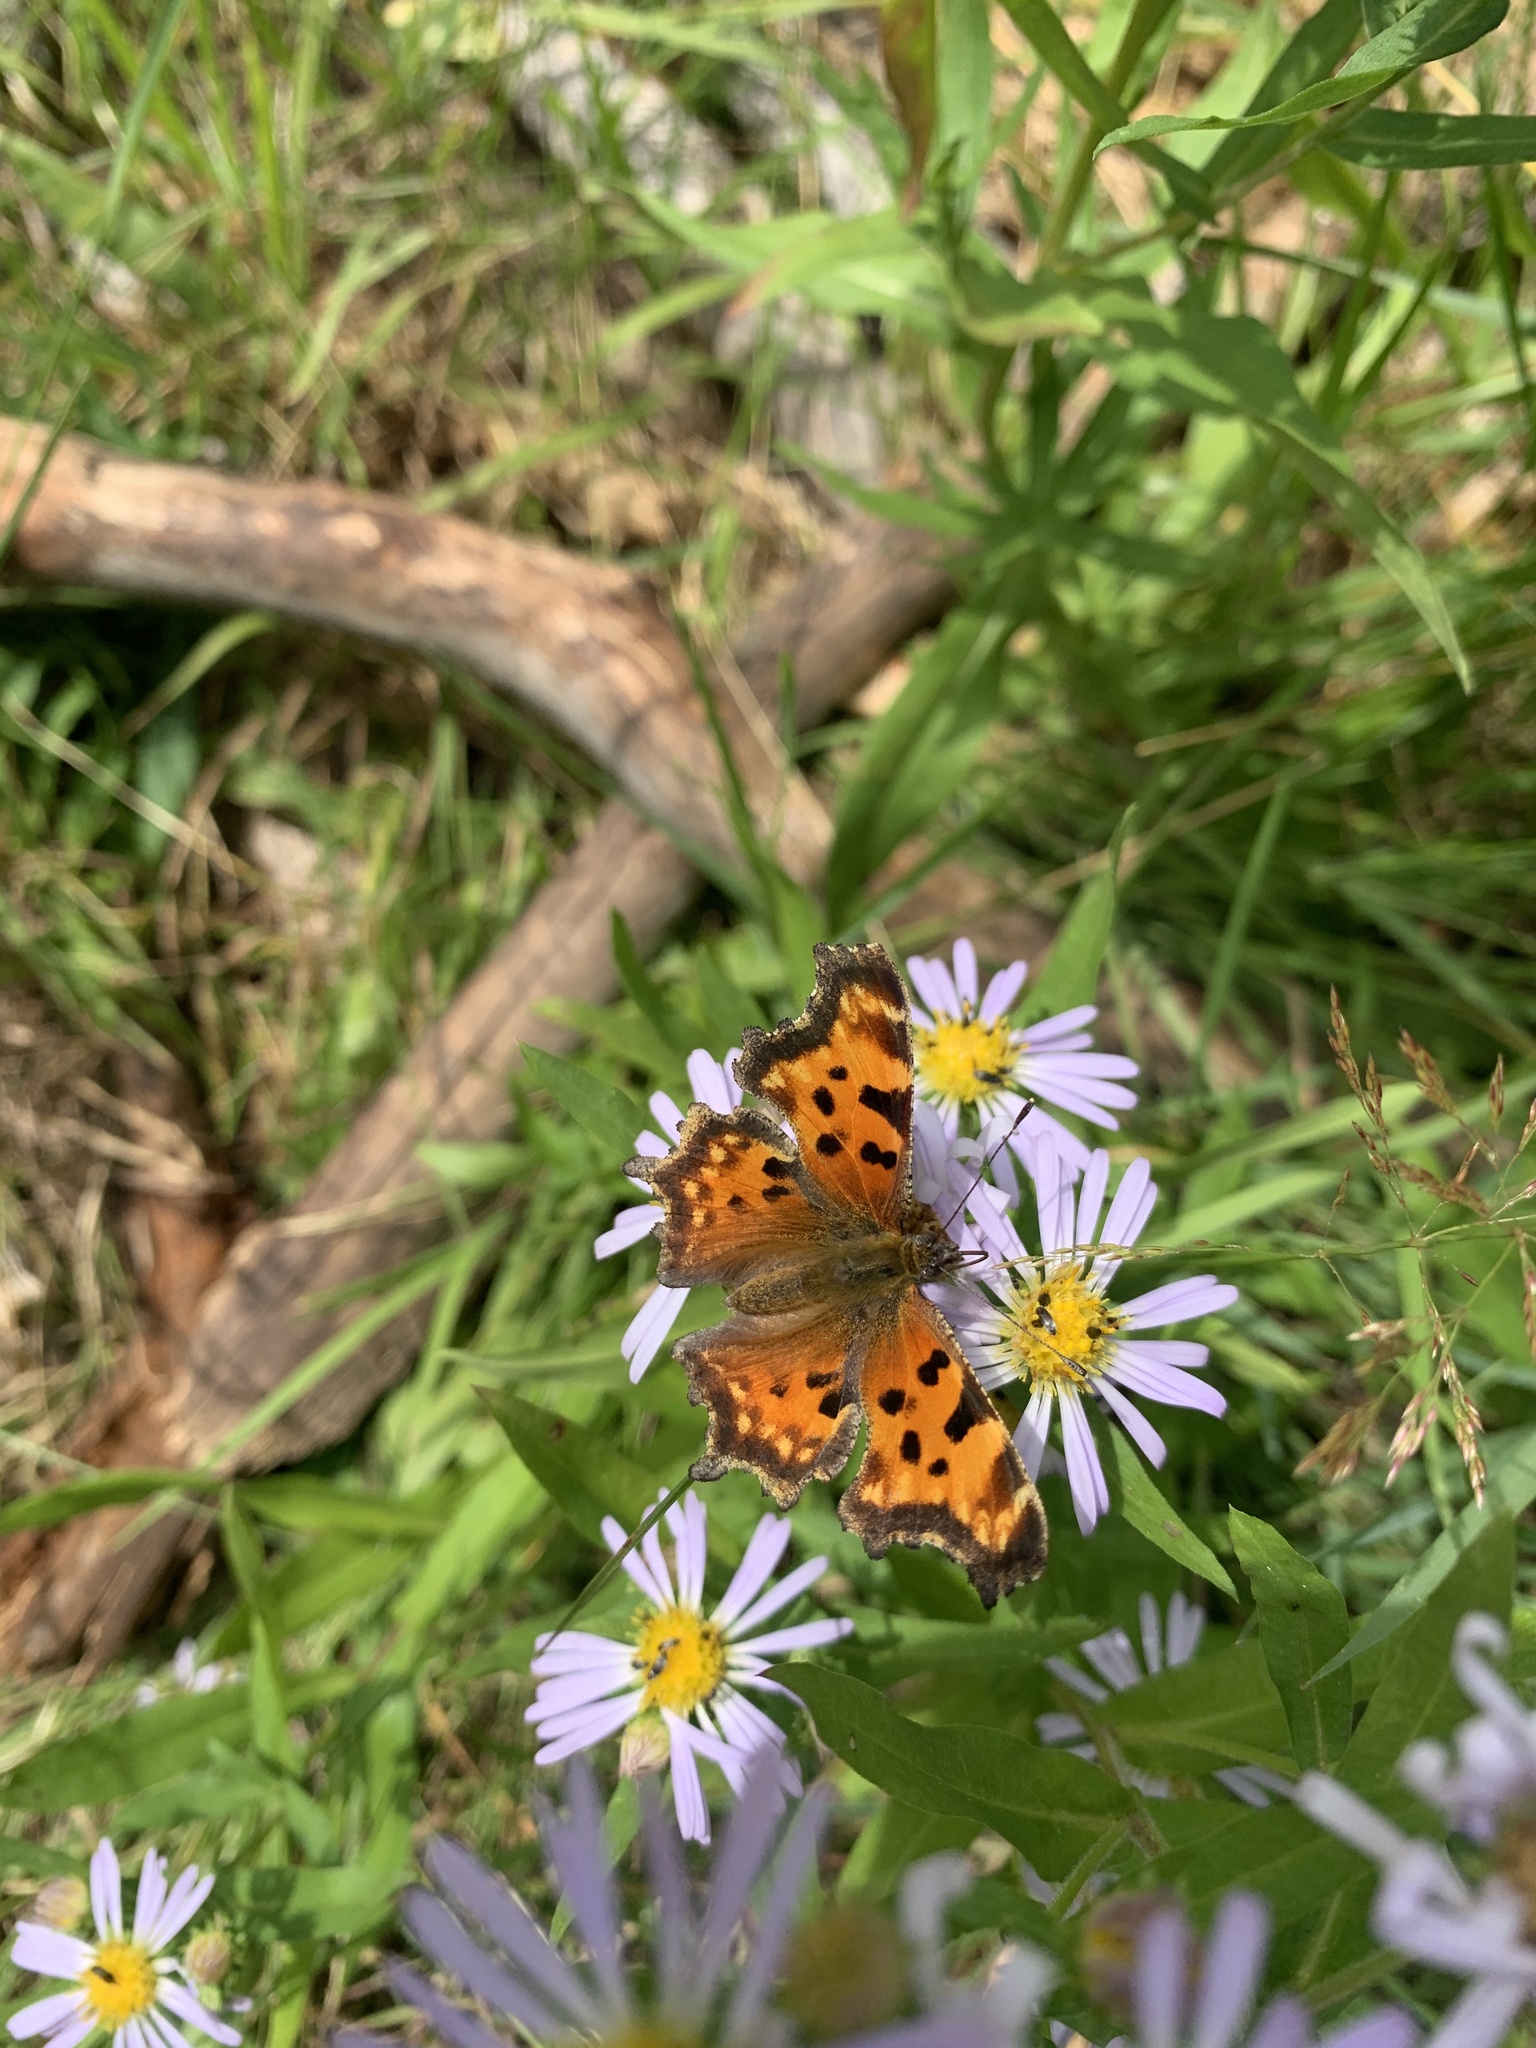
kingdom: Animalia
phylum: Arthropoda
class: Insecta
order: Lepidoptera
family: Nymphalidae
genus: Polygonia
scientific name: Polygonia faunus
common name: Green comma
